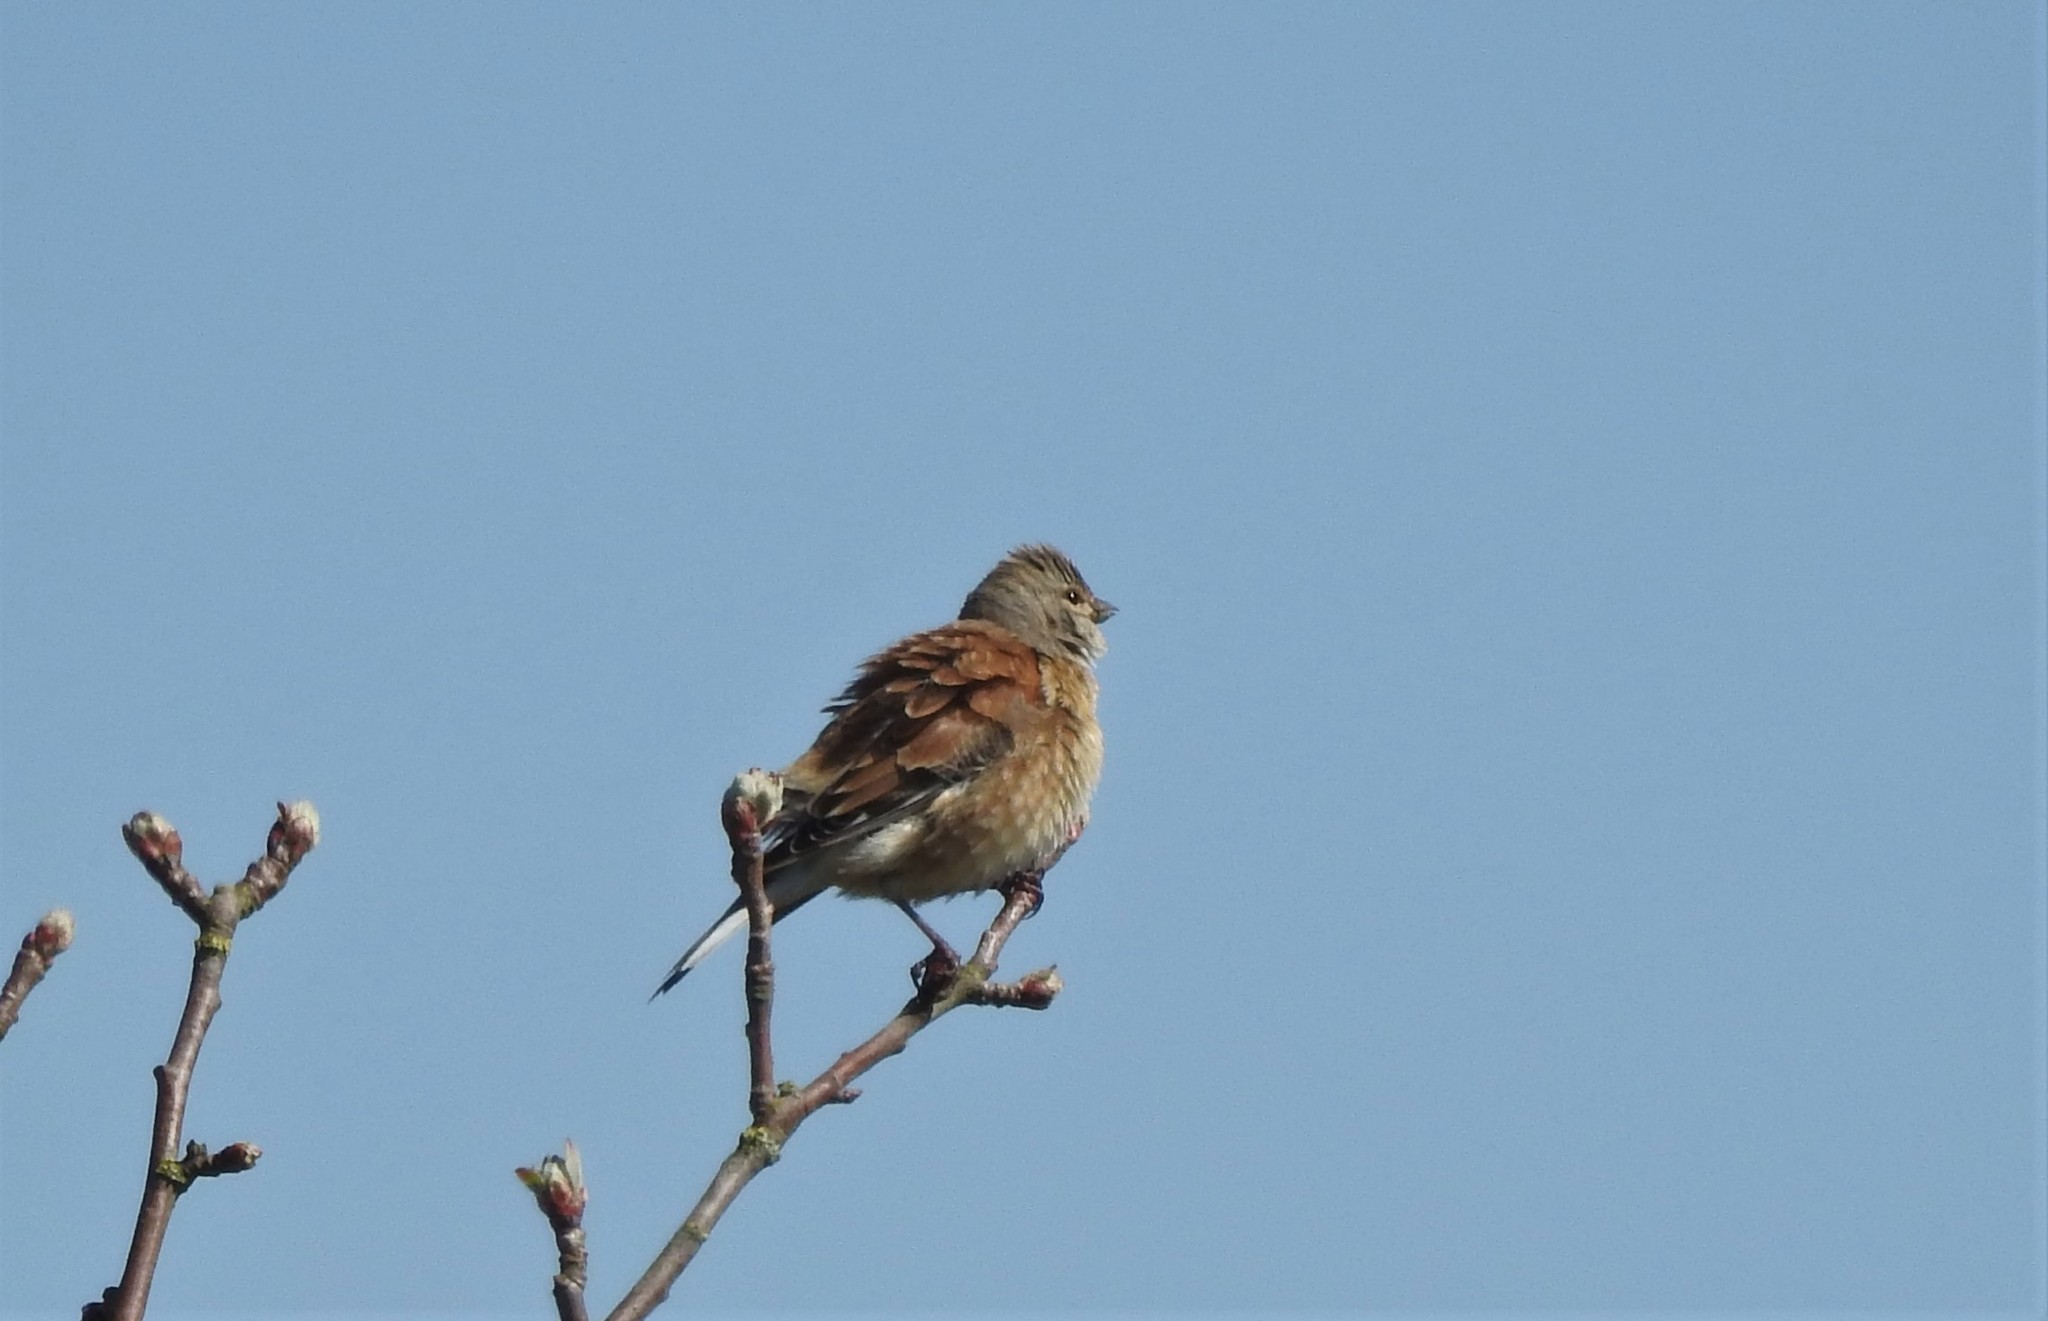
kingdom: Animalia
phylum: Chordata
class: Aves
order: Passeriformes
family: Fringillidae
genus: Linaria
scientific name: Linaria cannabina
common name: Common linnet
